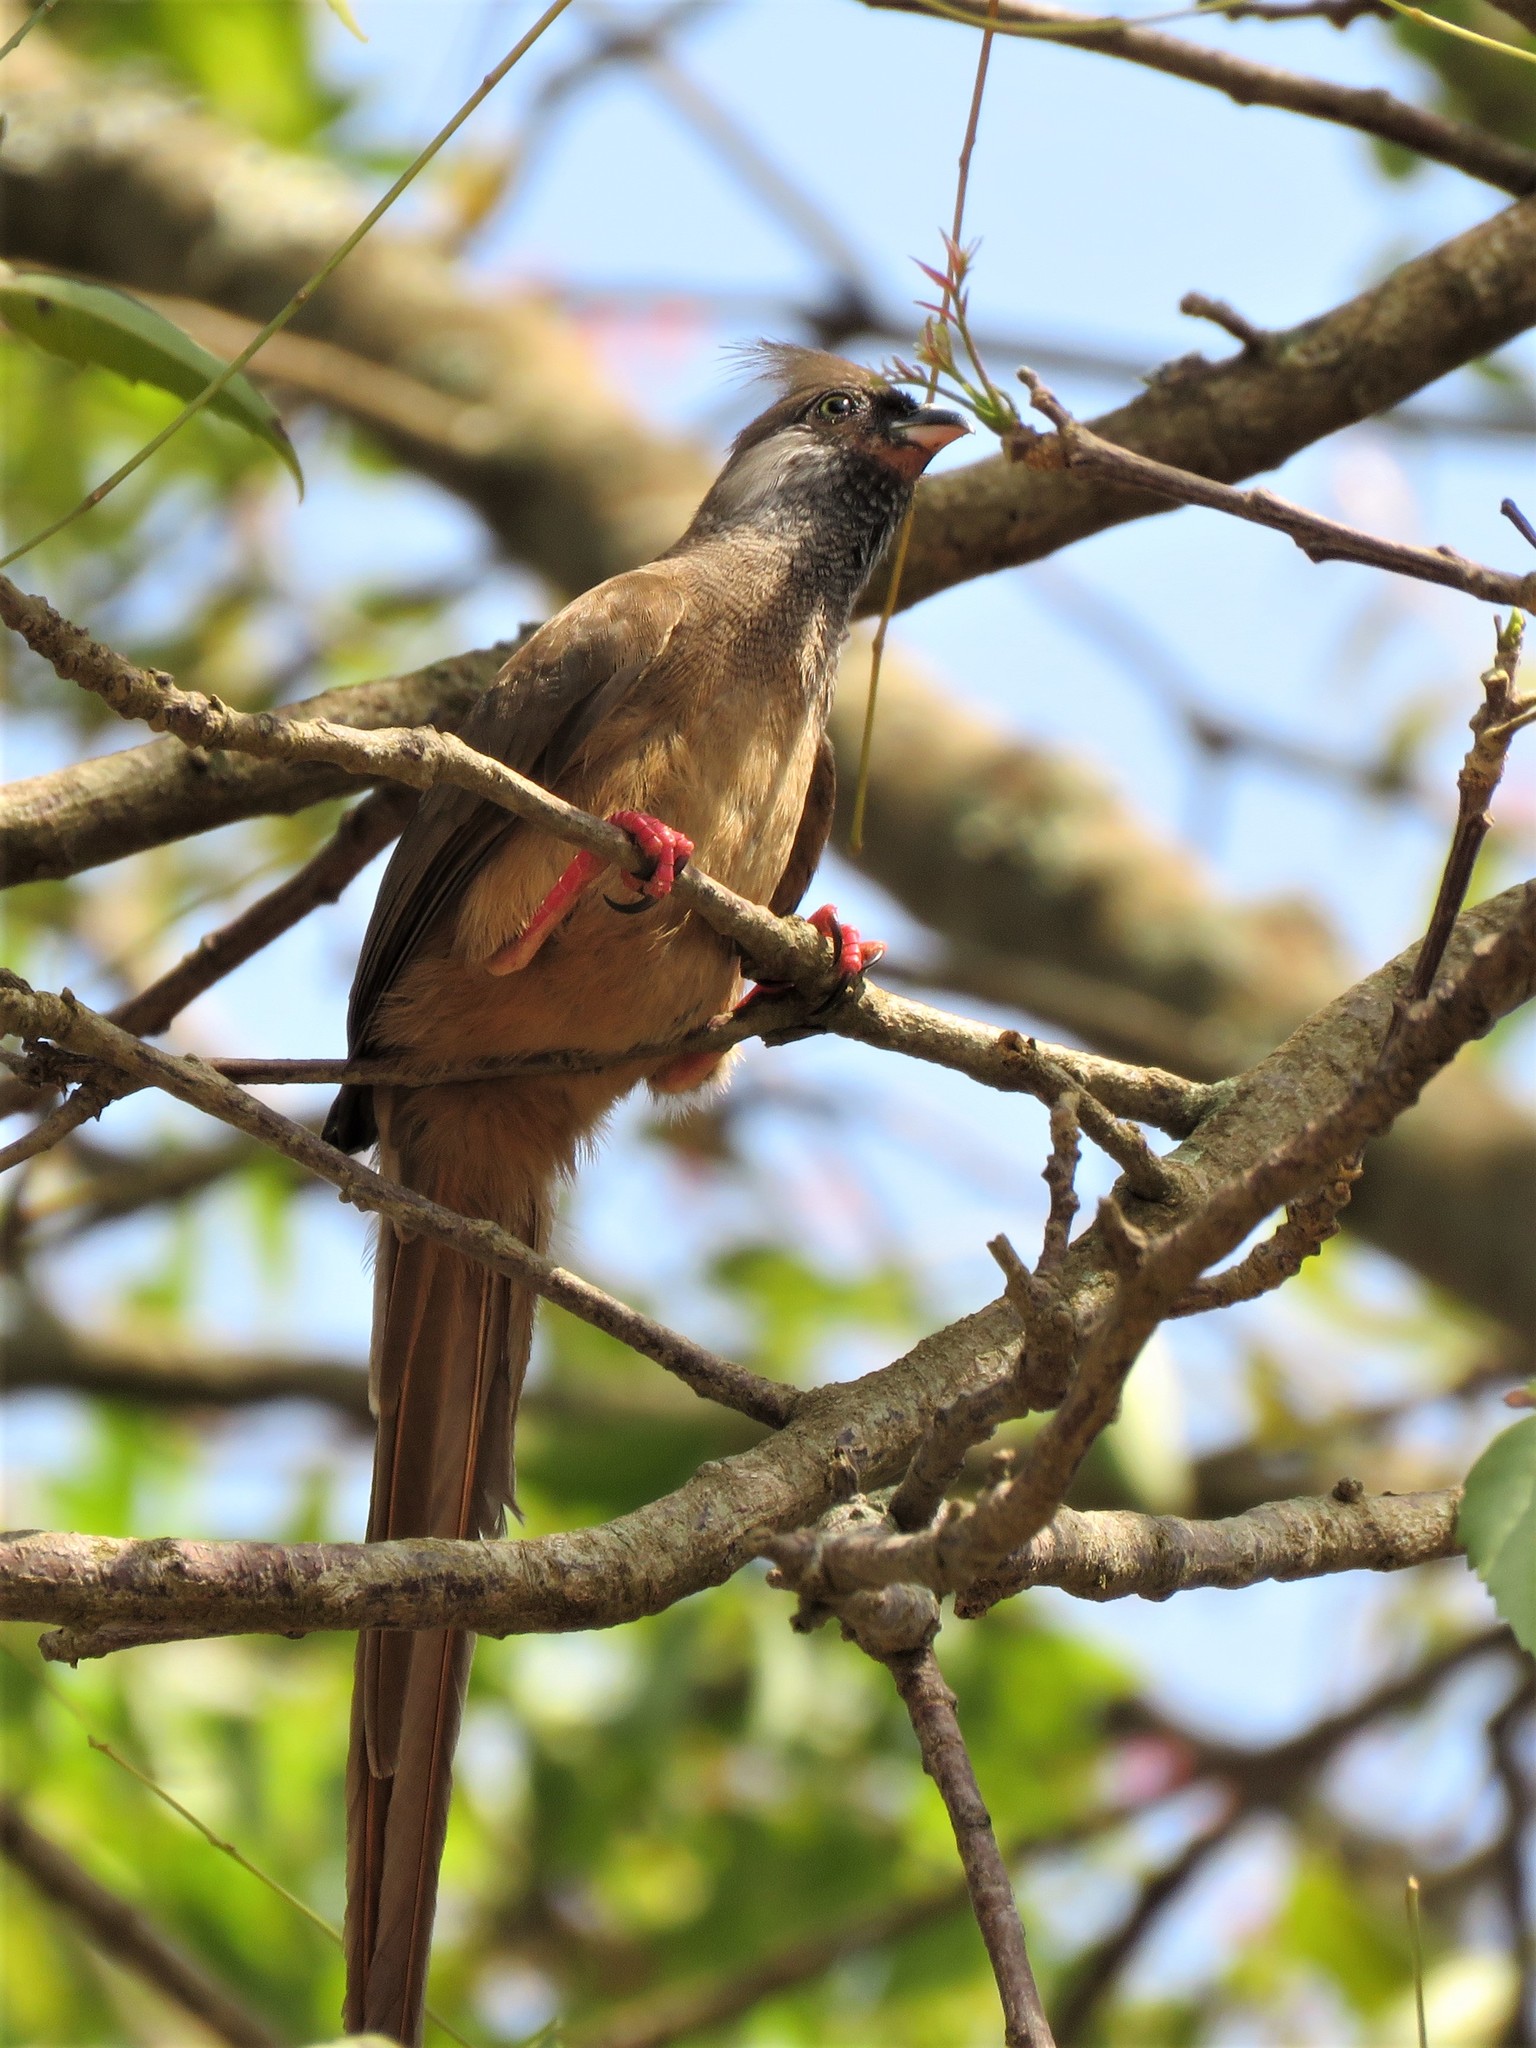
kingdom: Animalia
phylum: Chordata
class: Aves
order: Coliiformes
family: Coliidae
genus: Colius
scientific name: Colius striatus
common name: Speckled mousebird
